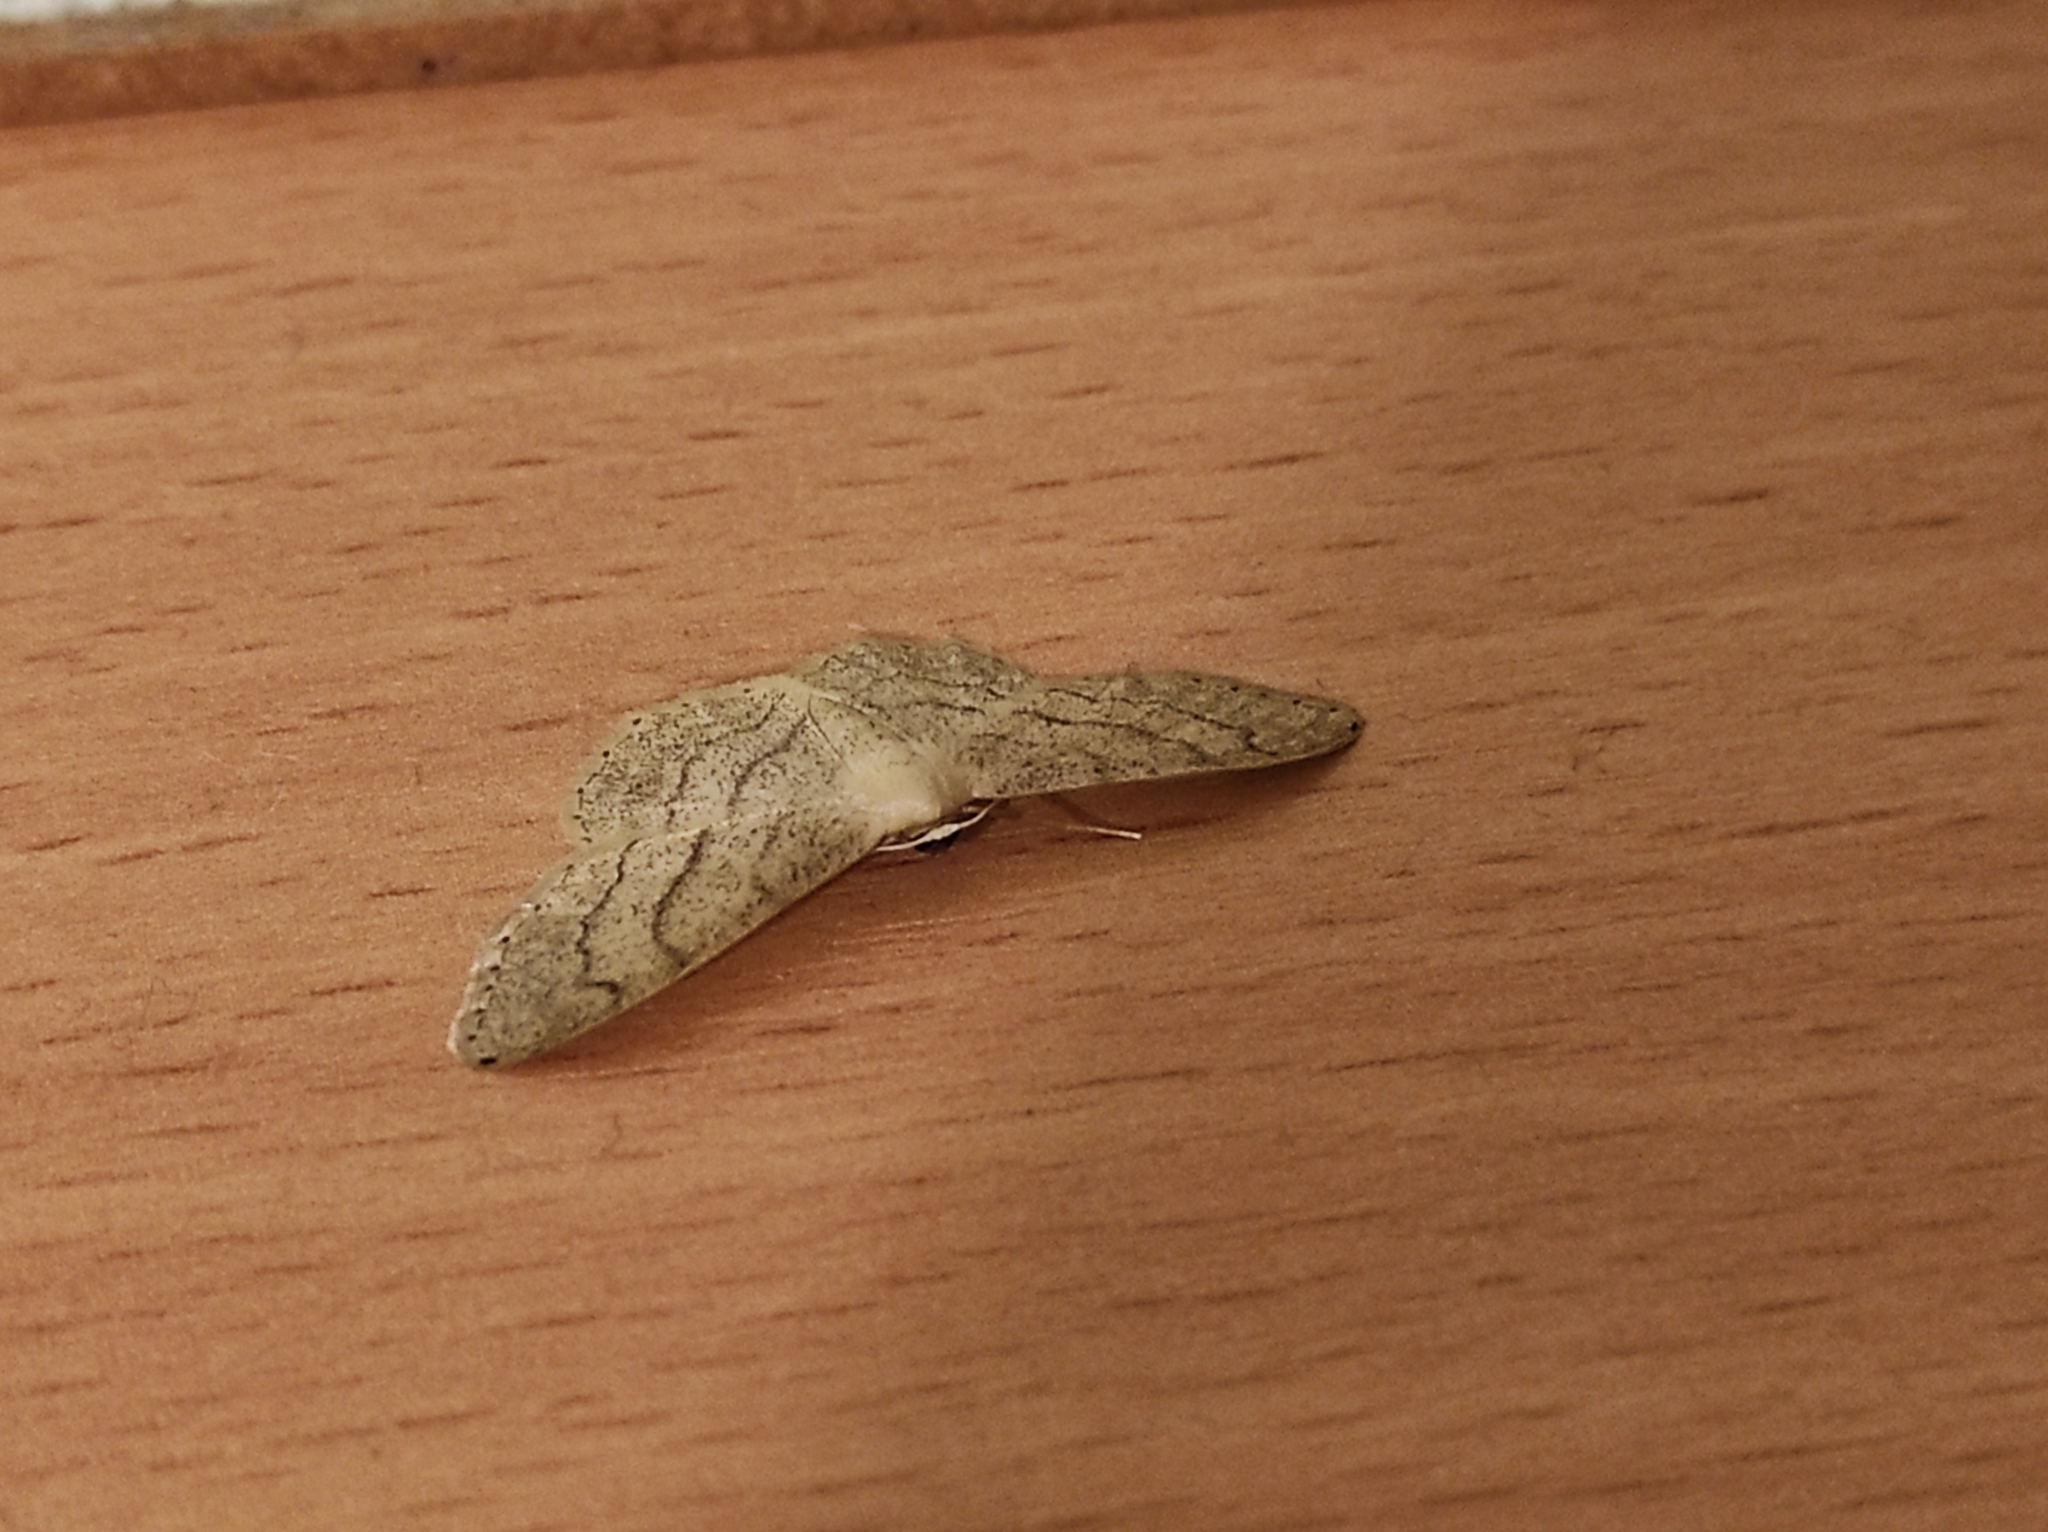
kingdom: Animalia
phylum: Arthropoda
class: Insecta
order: Lepidoptera
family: Geometridae
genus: Idaea
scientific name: Idaea aversata
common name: Riband wave
